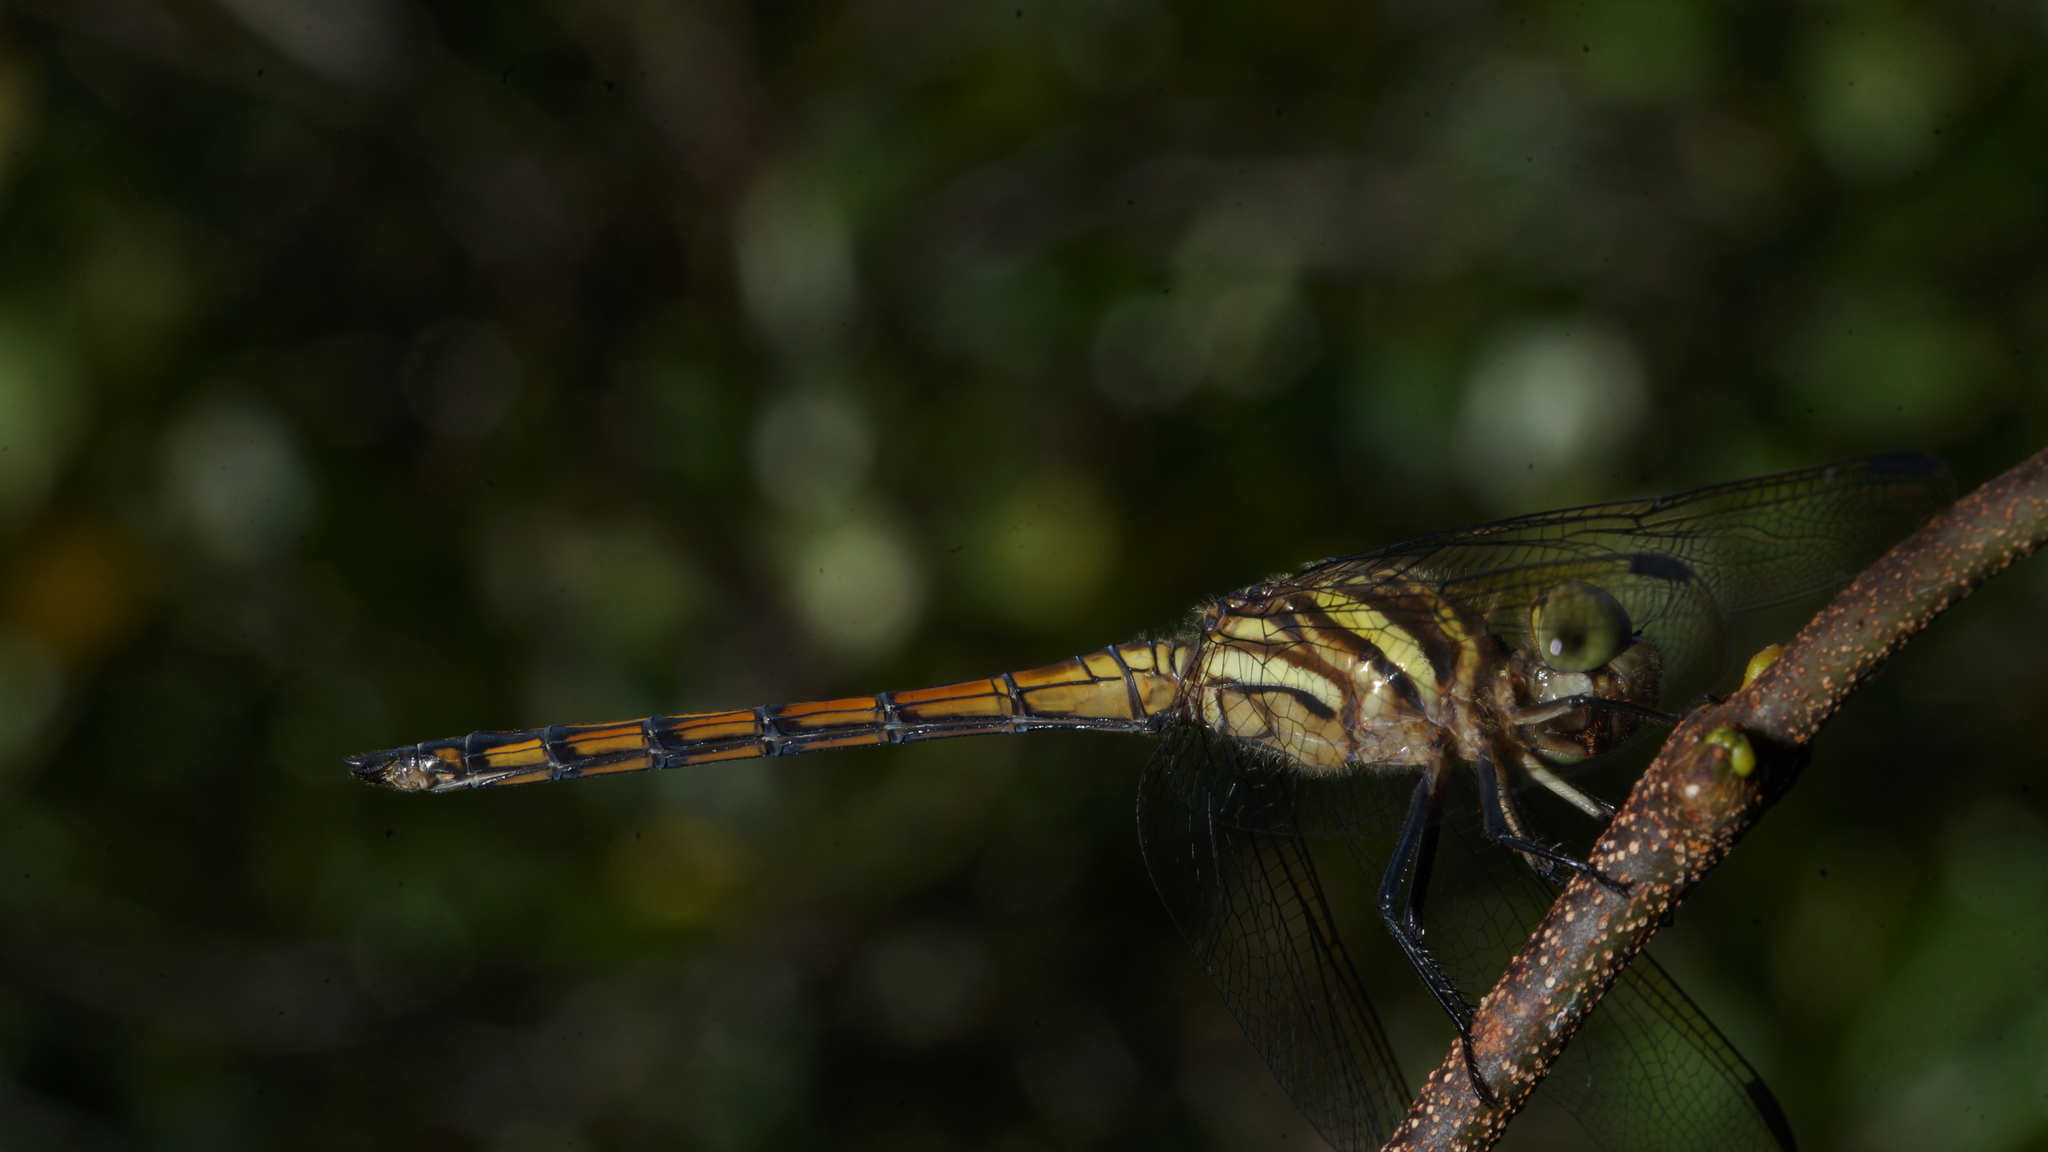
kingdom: Animalia
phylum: Arthropoda
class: Insecta
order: Odonata
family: Libellulidae
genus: Lathrecista
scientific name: Lathrecista asiatica
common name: Scarlet grenadier
